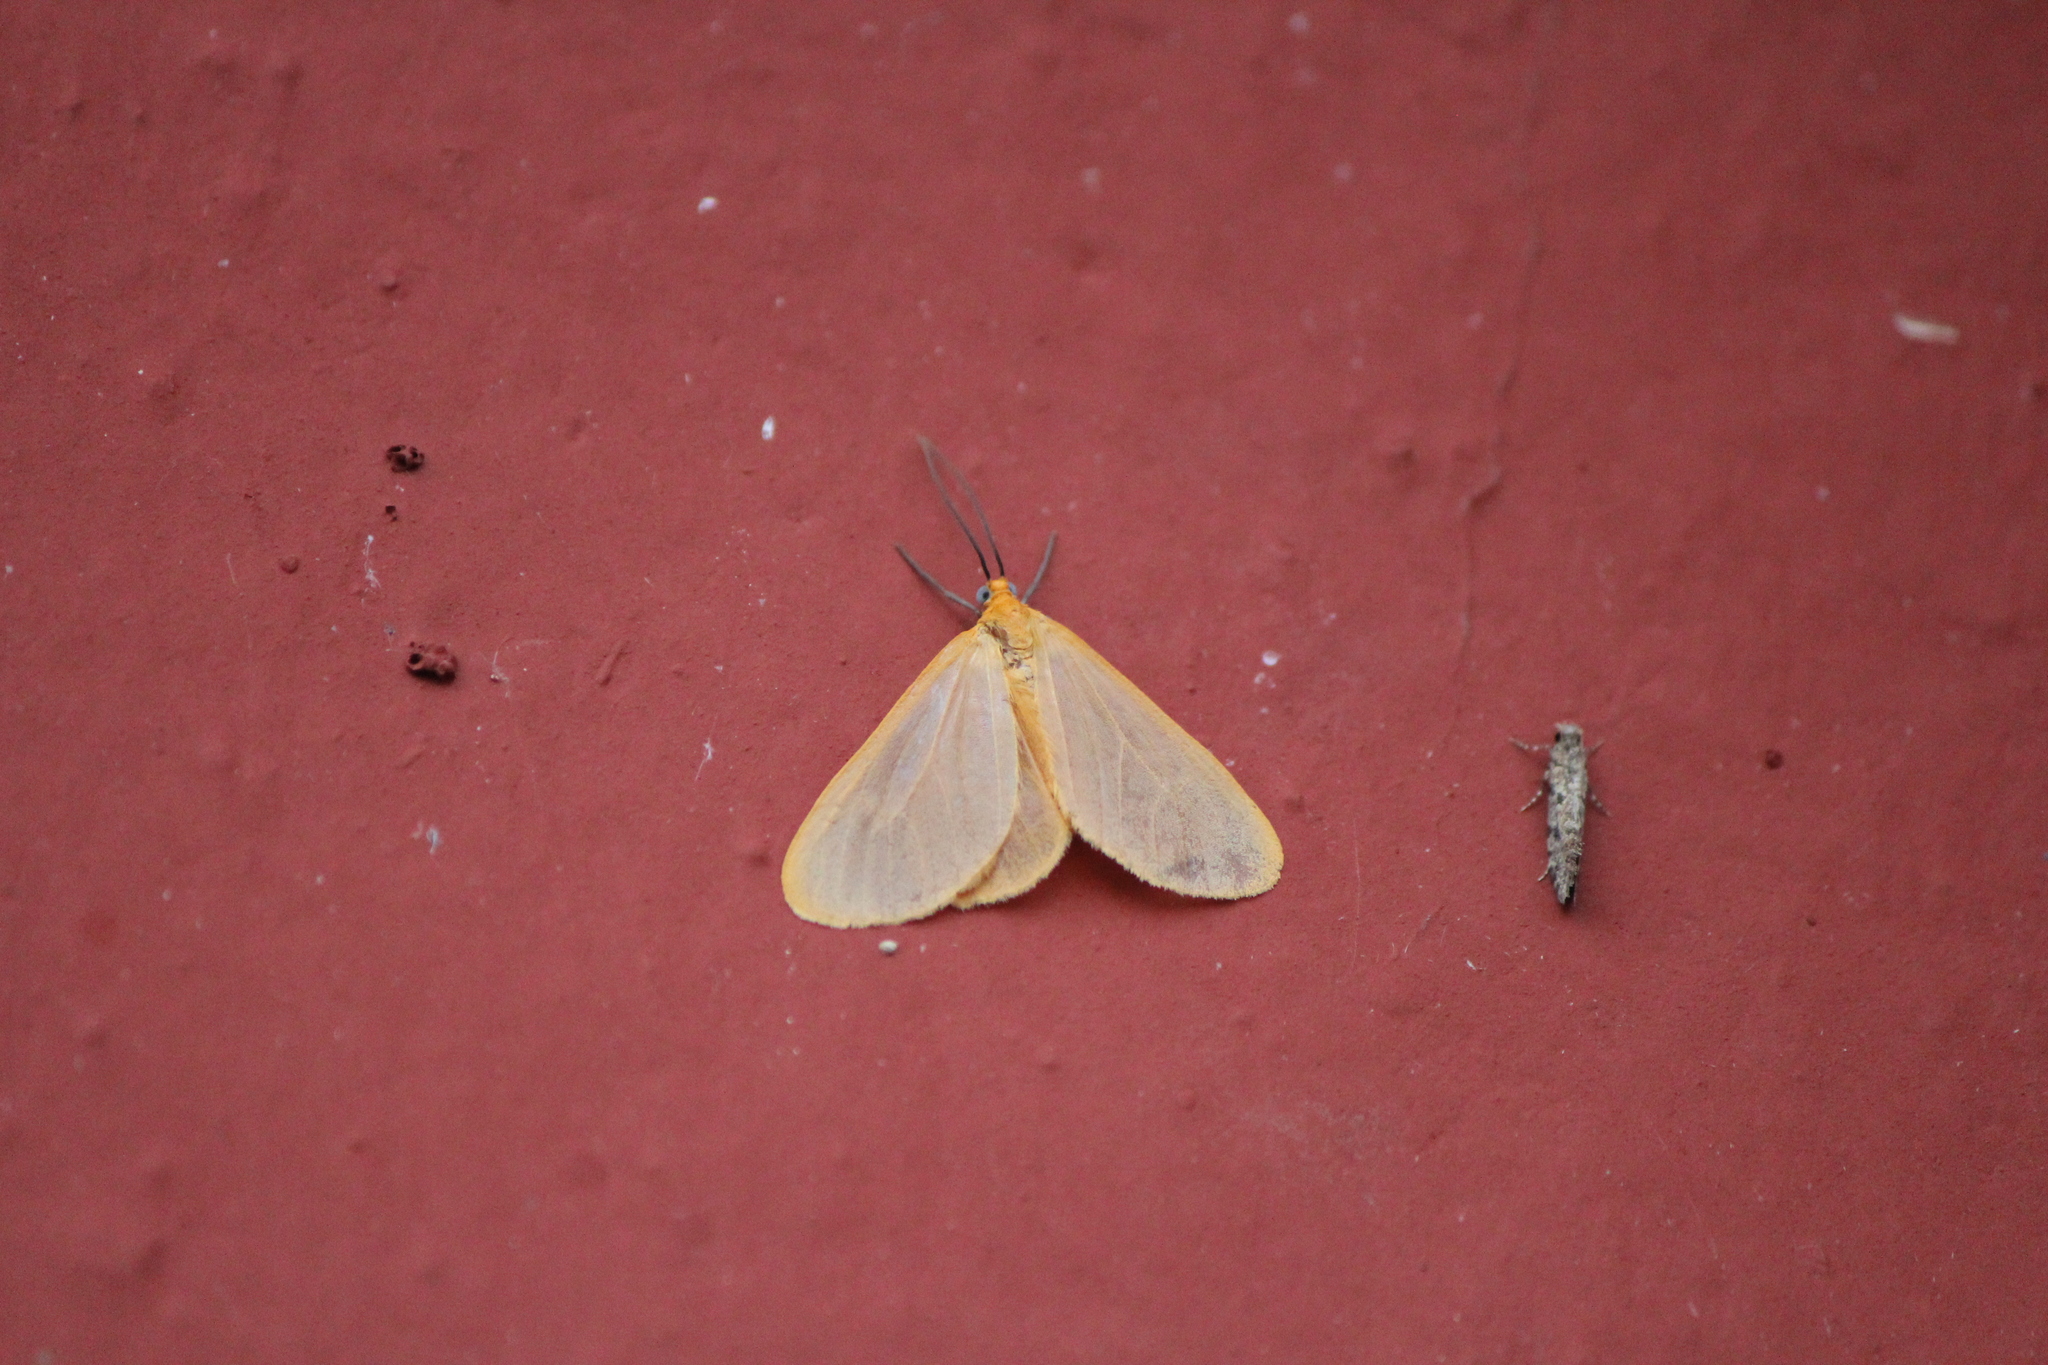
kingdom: Animalia
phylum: Arthropoda
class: Insecta
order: Lepidoptera
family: Geometridae
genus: Eubaphe
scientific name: Eubaphe unicolor
